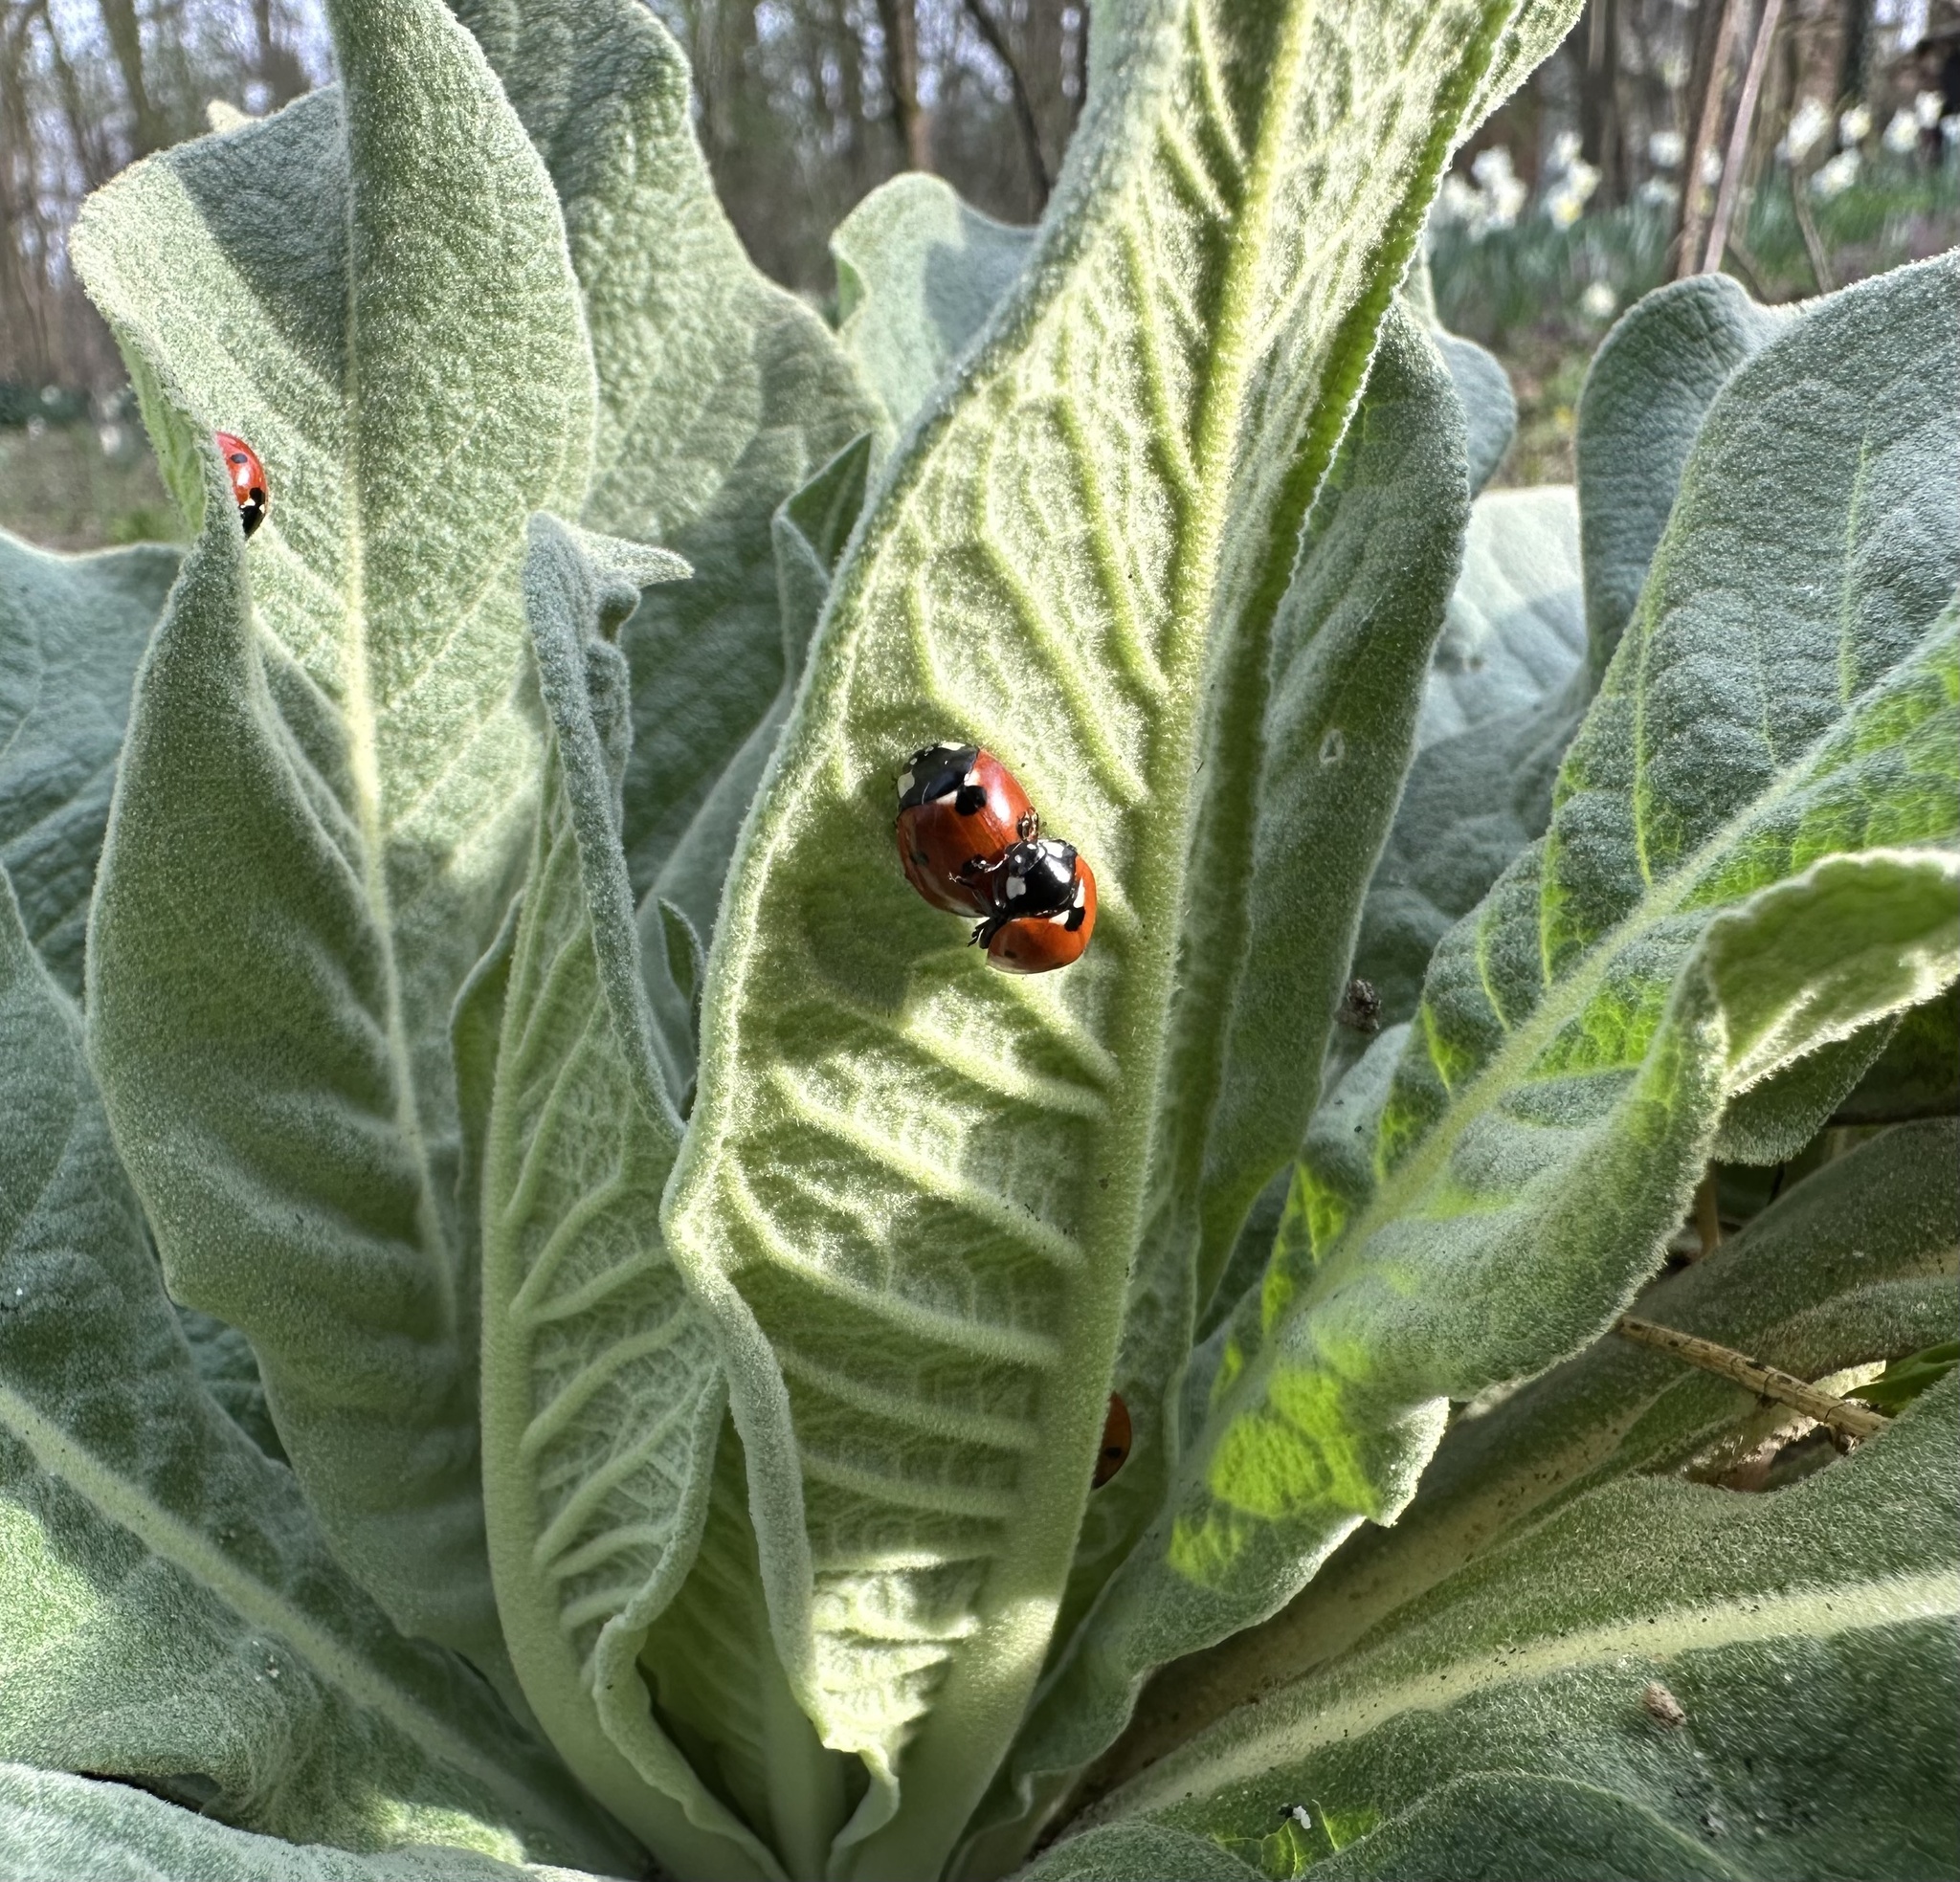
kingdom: Animalia
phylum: Arthropoda
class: Insecta
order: Coleoptera
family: Coccinellidae
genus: Coccinella
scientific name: Coccinella septempunctata
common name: Sevenspotted lady beetle
